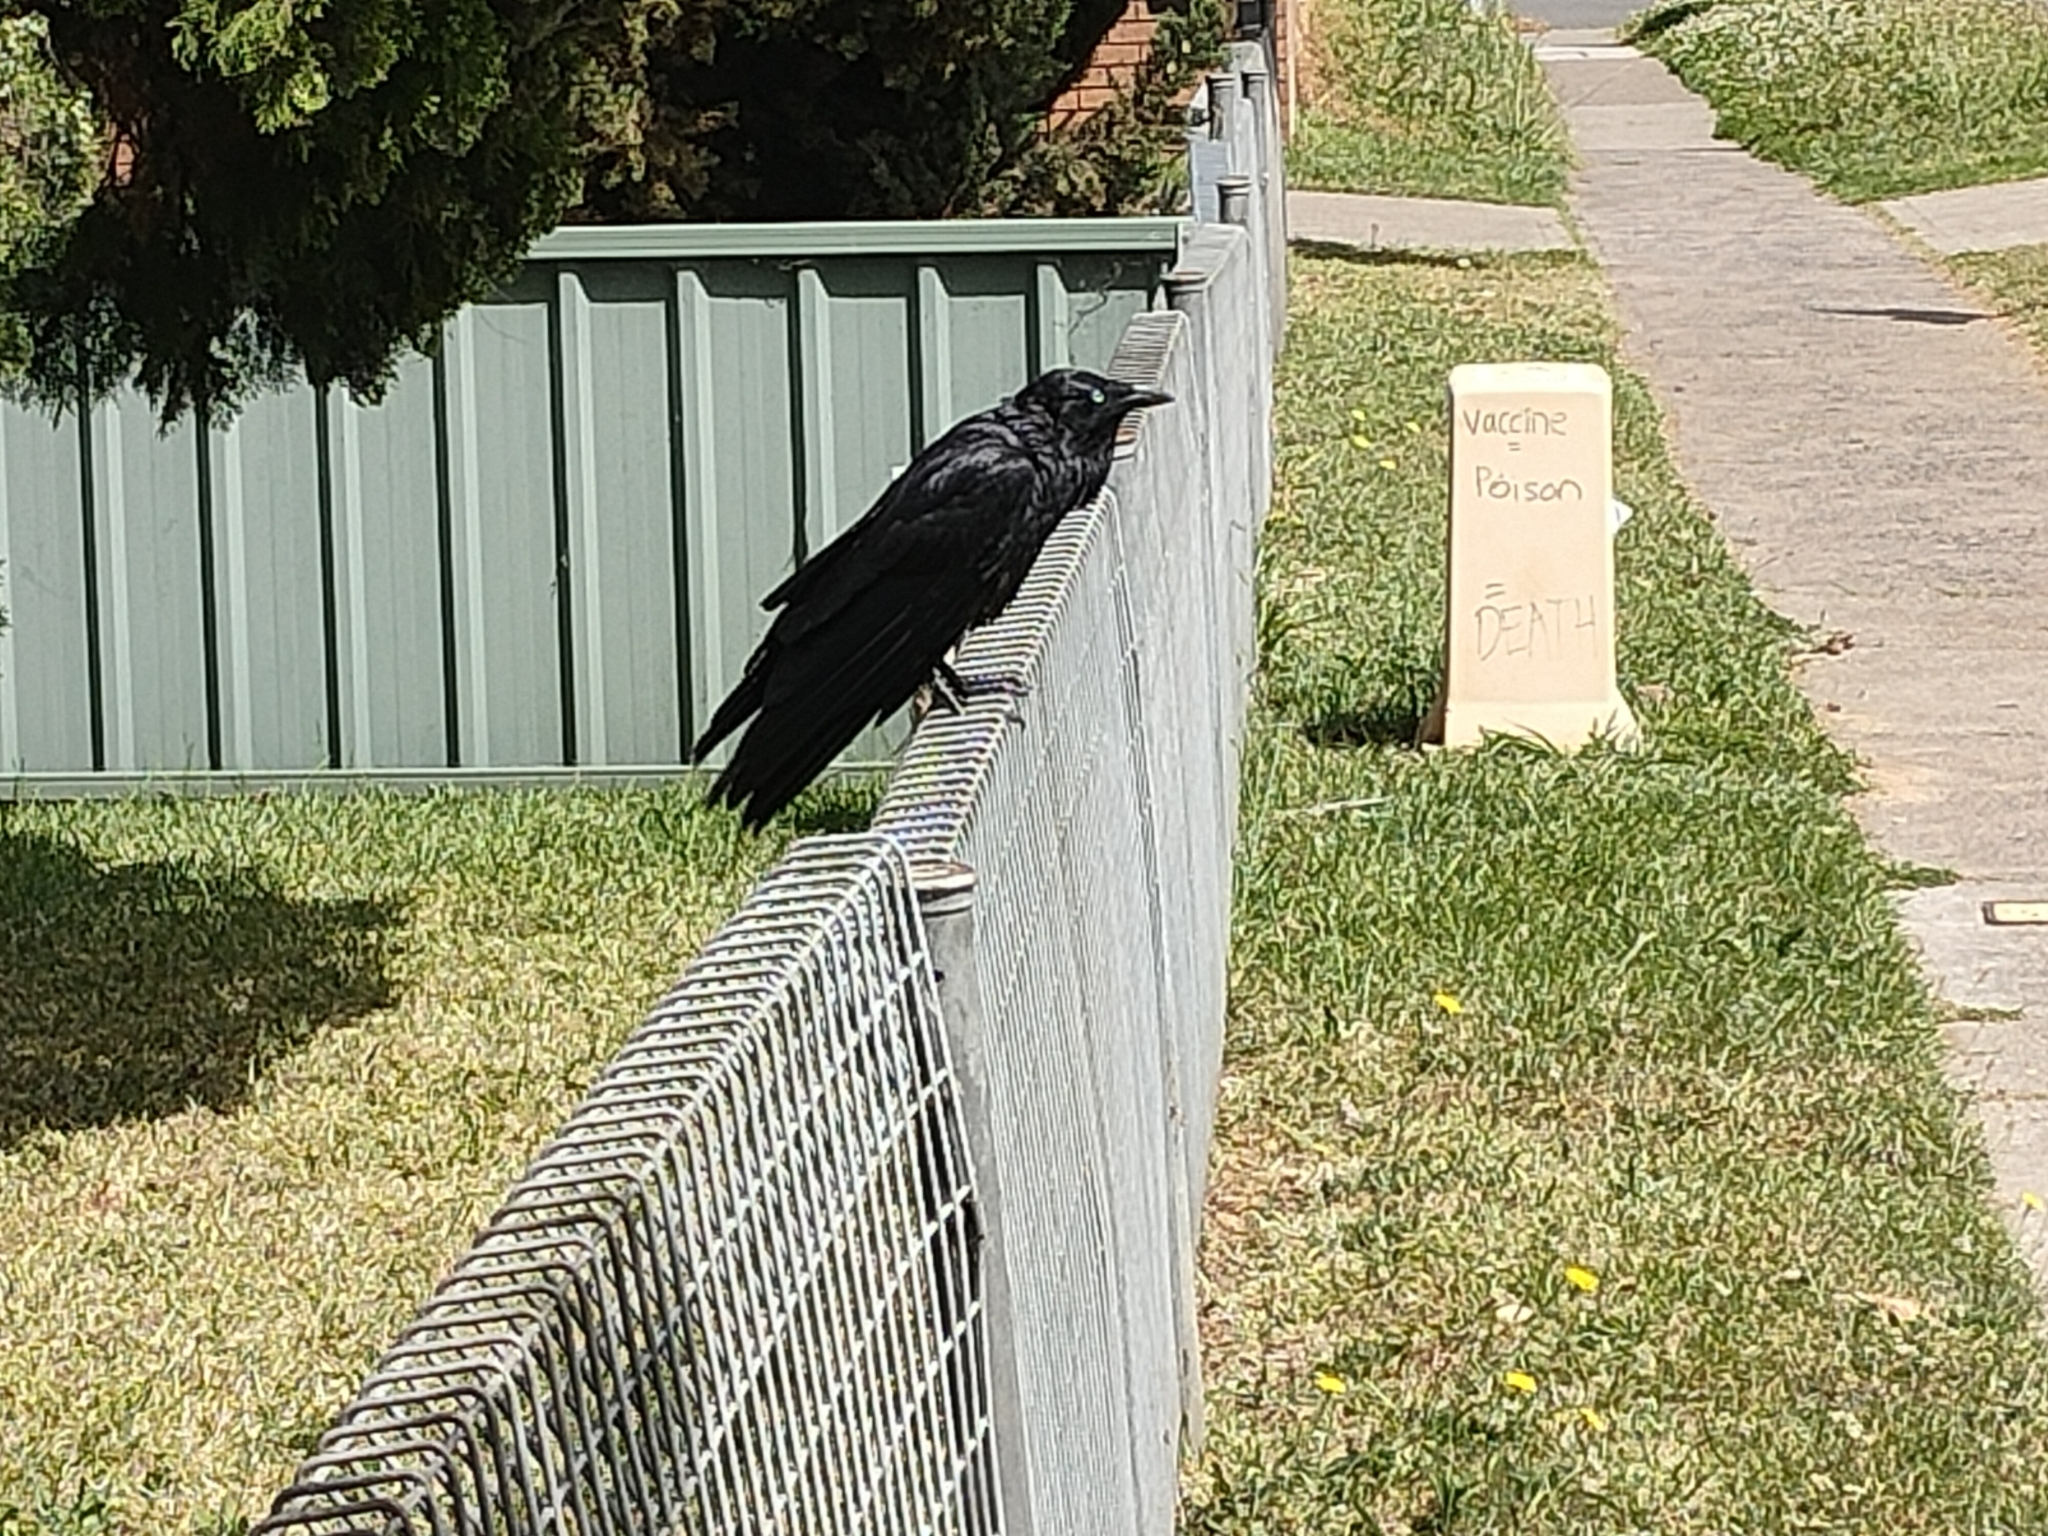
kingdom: Animalia
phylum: Chordata
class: Aves
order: Passeriformes
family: Corvidae
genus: Corvus
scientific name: Corvus coronoides
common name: Australian raven
